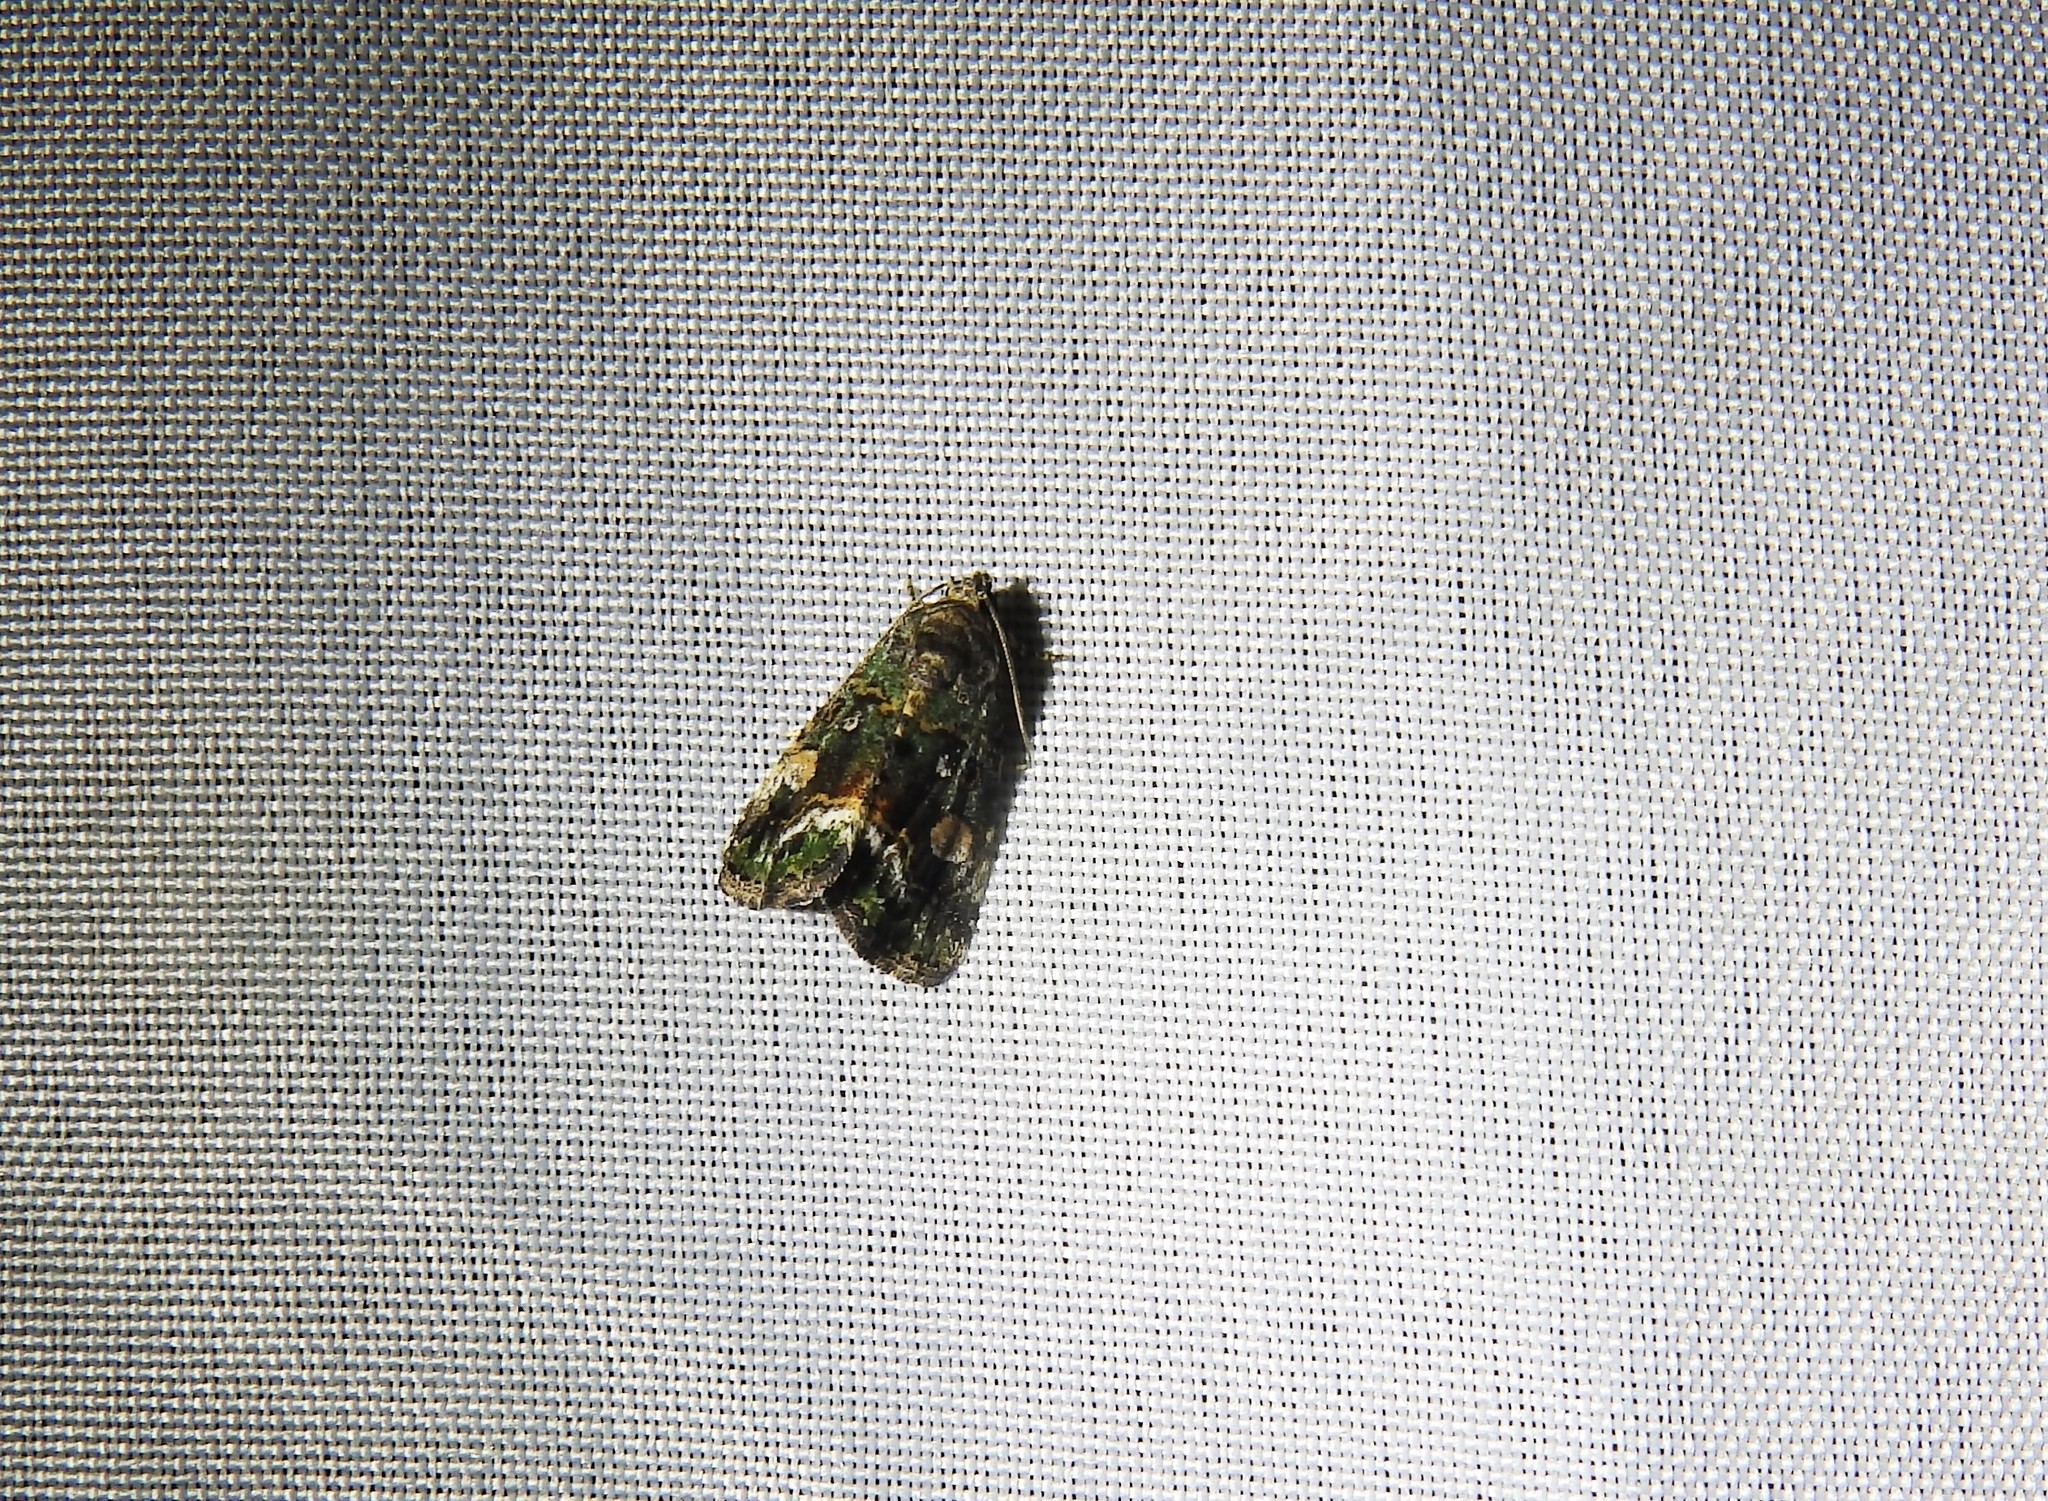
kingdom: Animalia
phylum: Arthropoda
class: Insecta
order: Lepidoptera
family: Noctuidae
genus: Lithacodia
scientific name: Lithacodia musta
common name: Small mossy glyph
